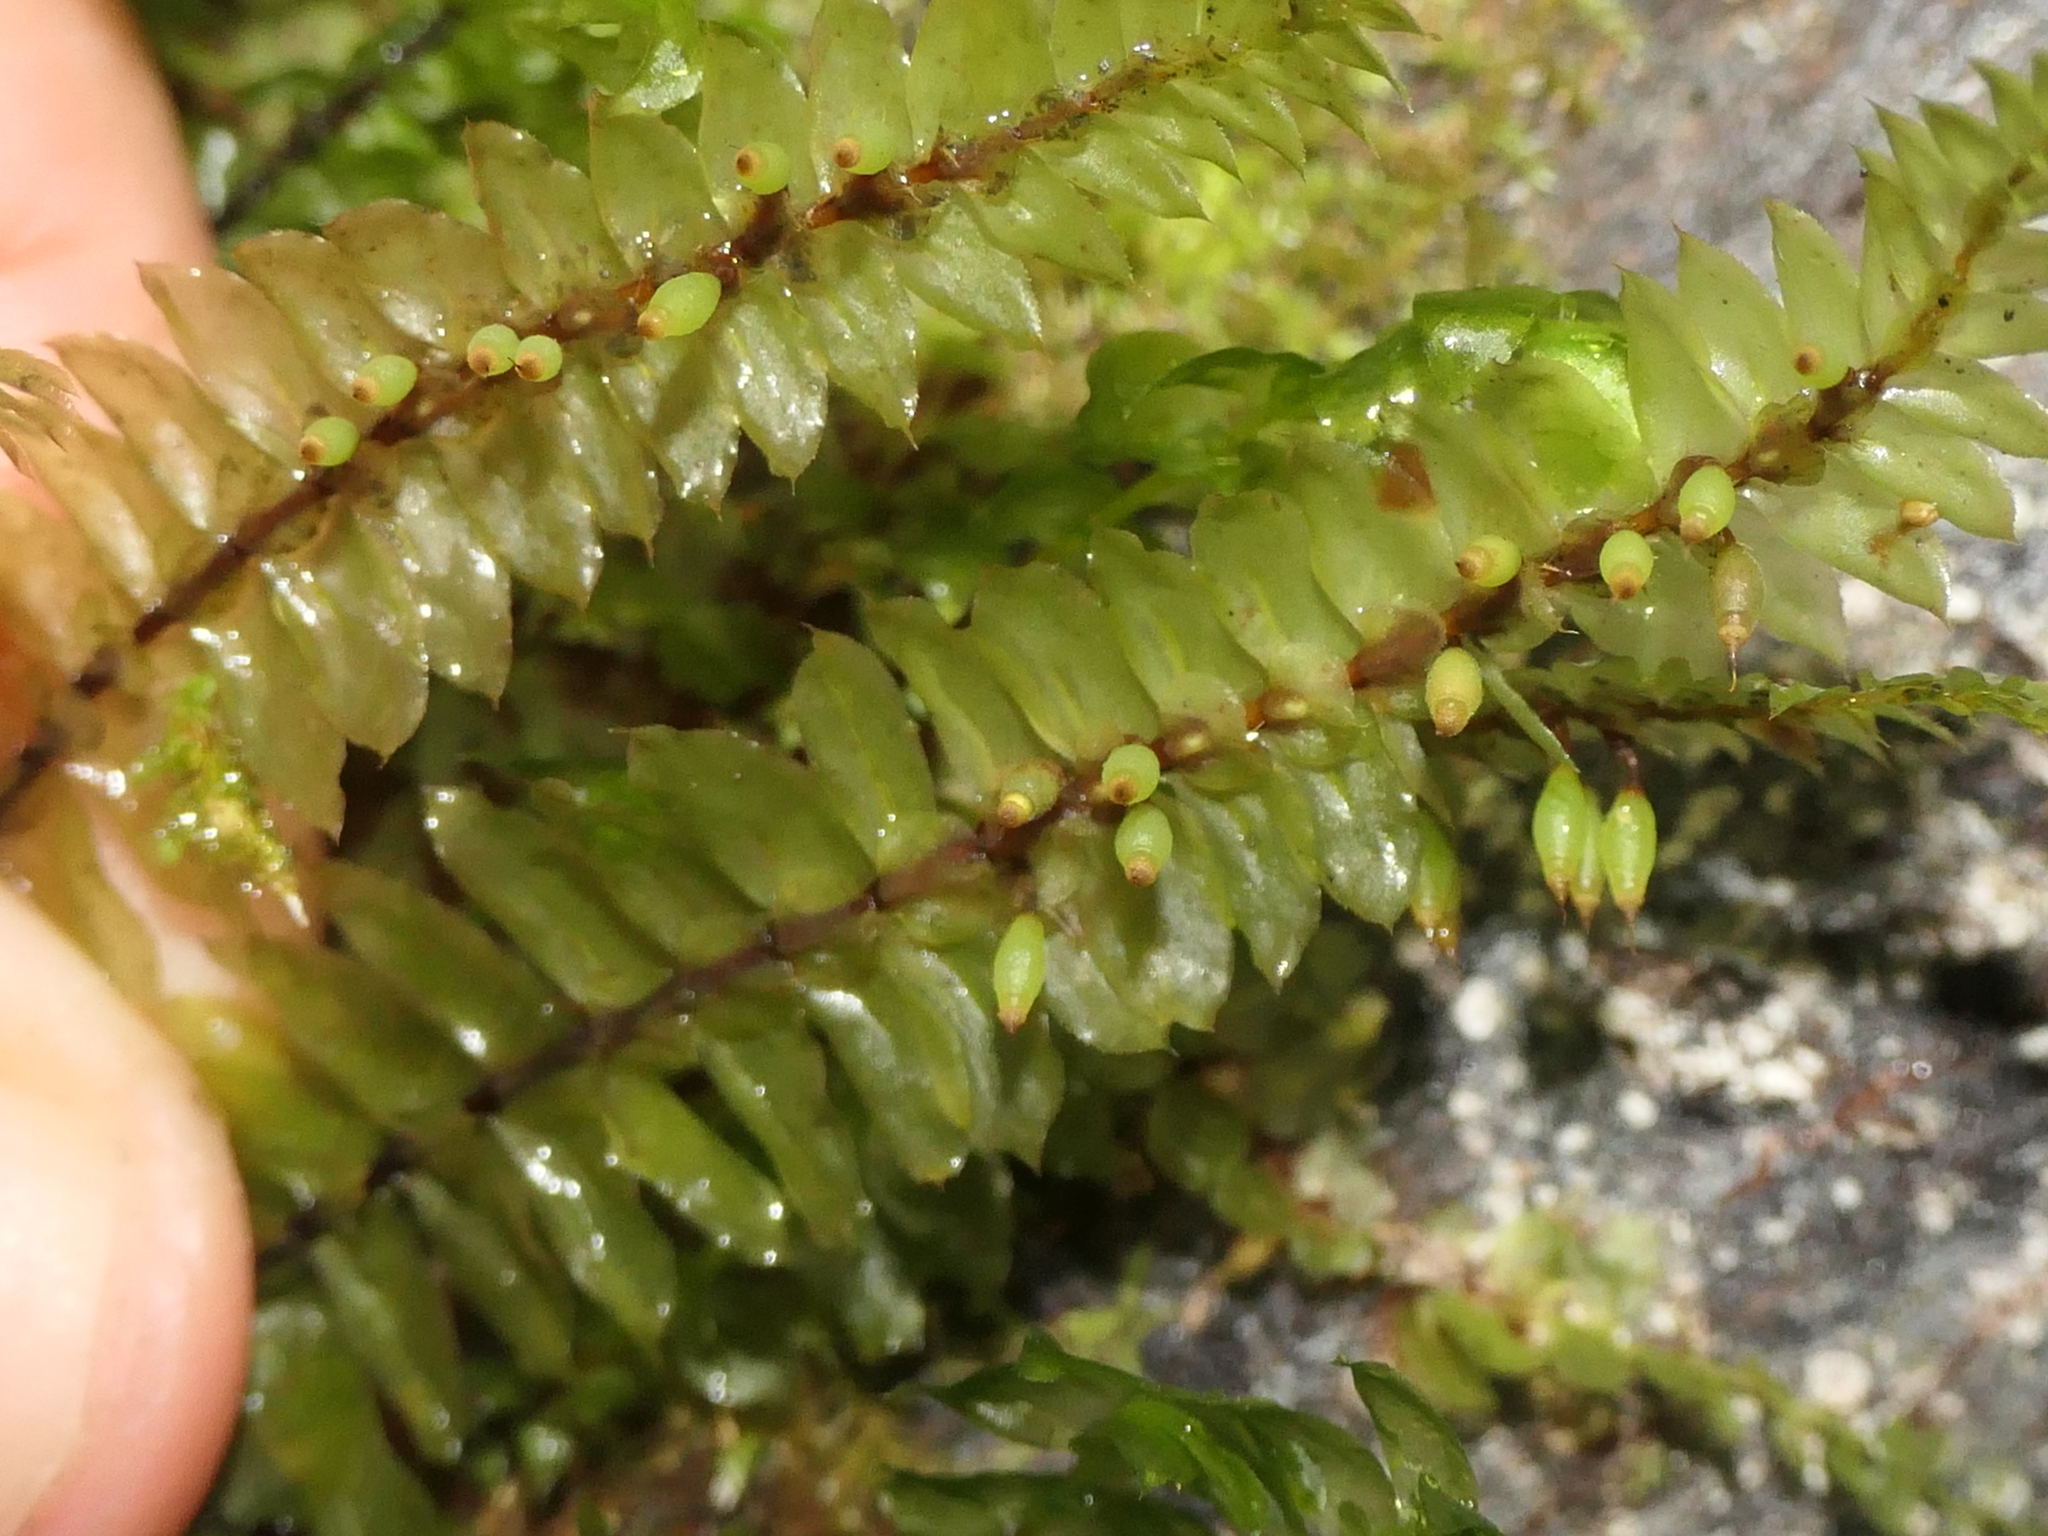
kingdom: Plantae
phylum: Bryophyta
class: Bryopsida
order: Hypopterygiales
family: Hypopterygiaceae
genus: Cyathophorum
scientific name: Cyathophorum bulbosum
